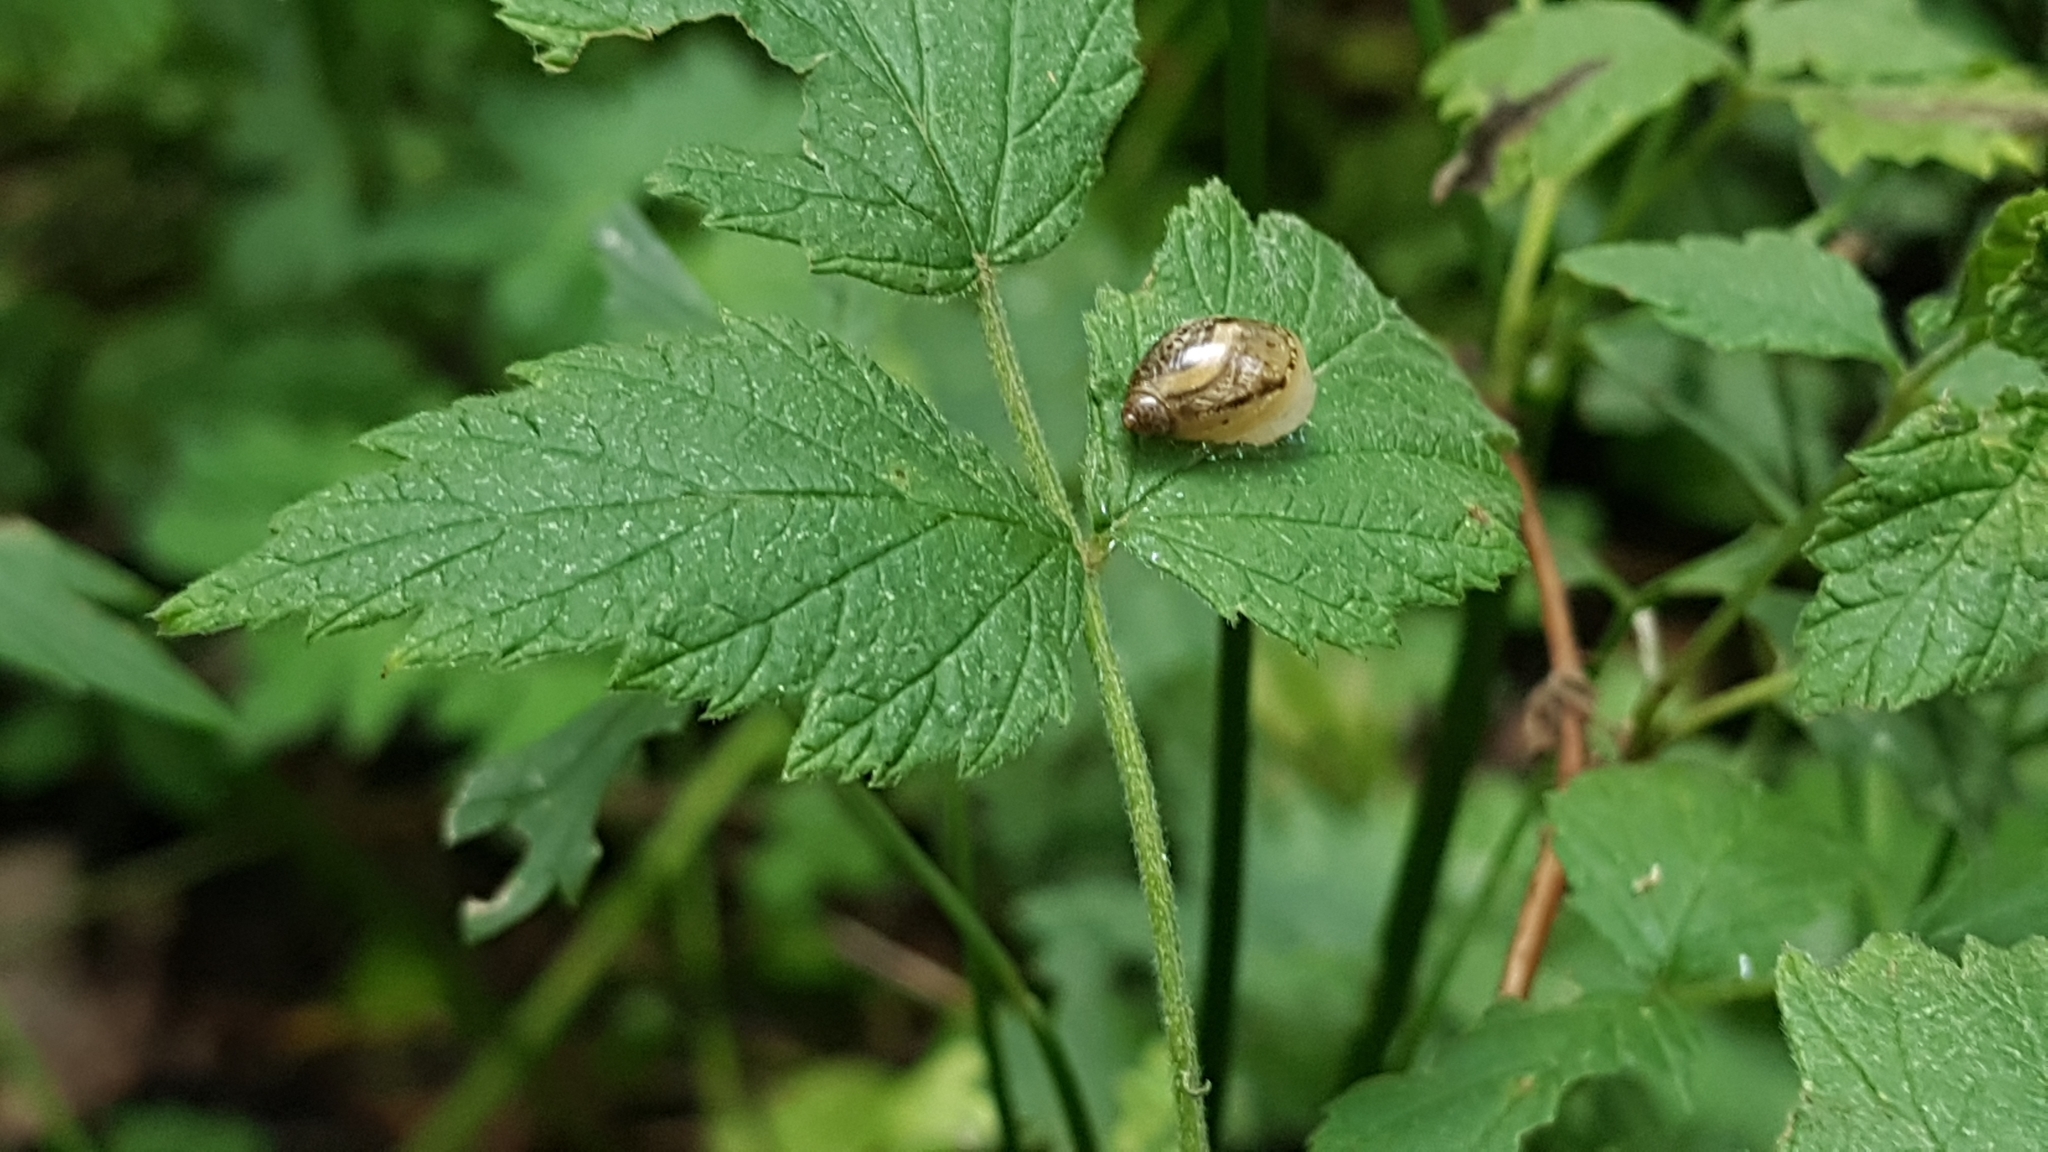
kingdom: Animalia
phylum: Mollusca
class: Gastropoda
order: Stylommatophora
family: Succineidae
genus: Succinea
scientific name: Succinea putris
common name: European ambersnail
